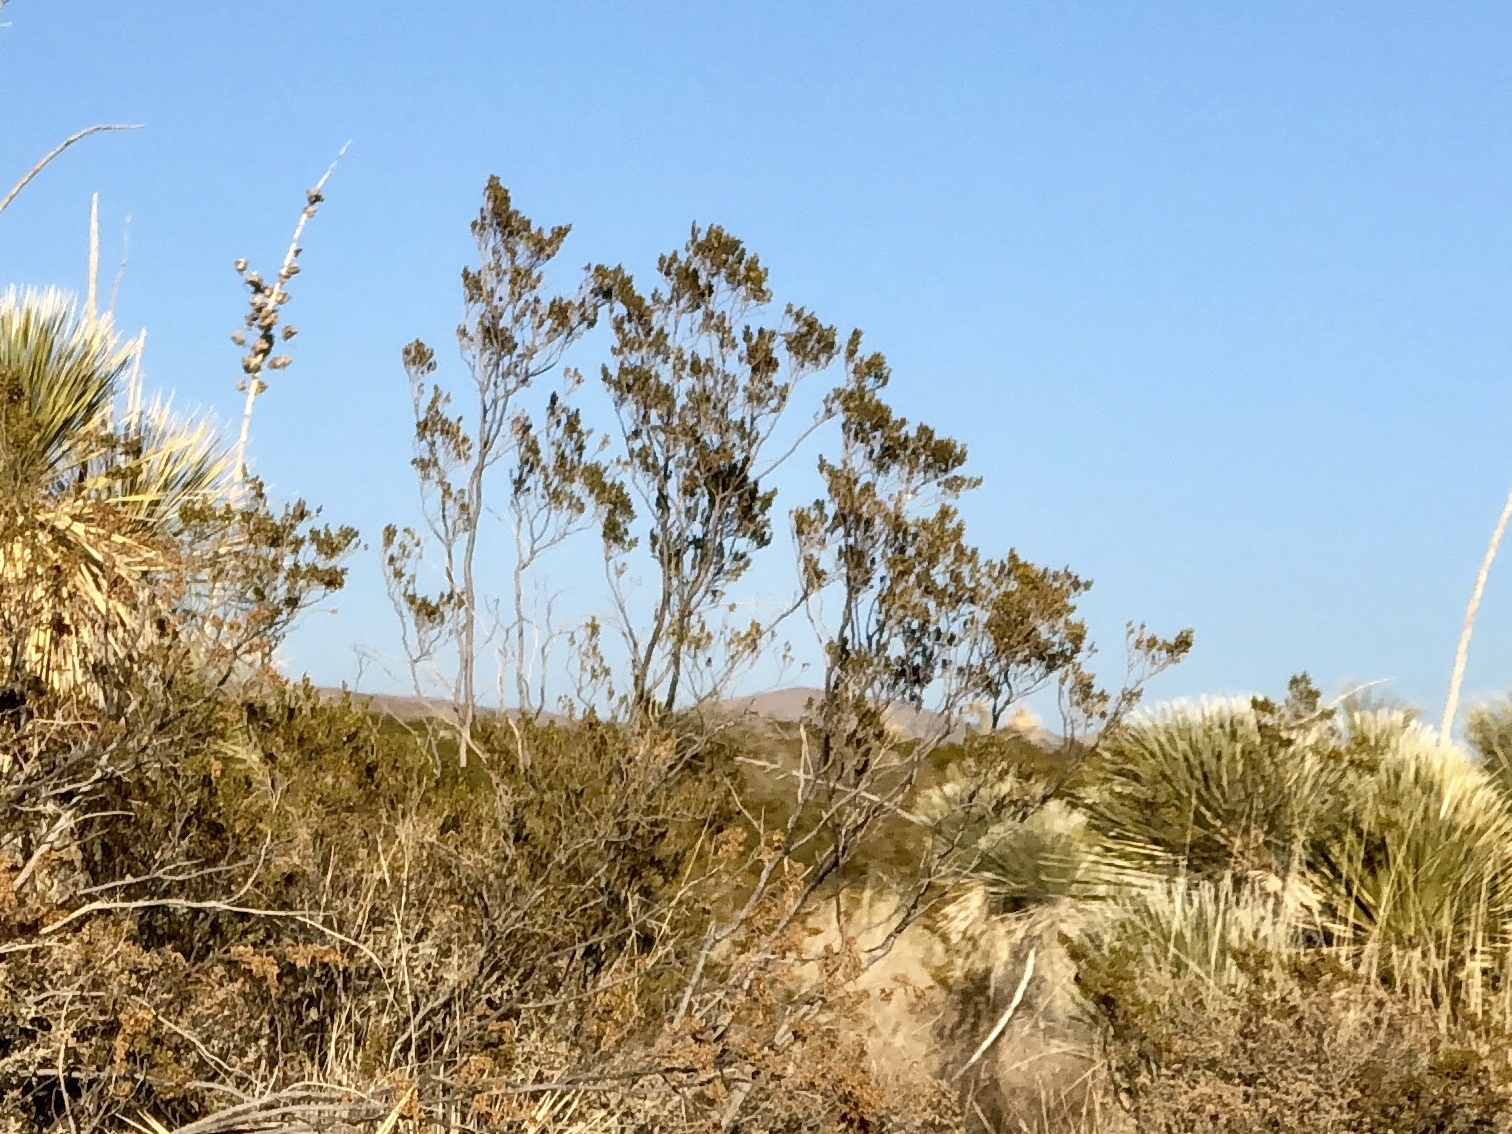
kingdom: Plantae
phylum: Tracheophyta
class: Magnoliopsida
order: Zygophyllales
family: Zygophyllaceae
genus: Larrea
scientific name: Larrea tridentata
